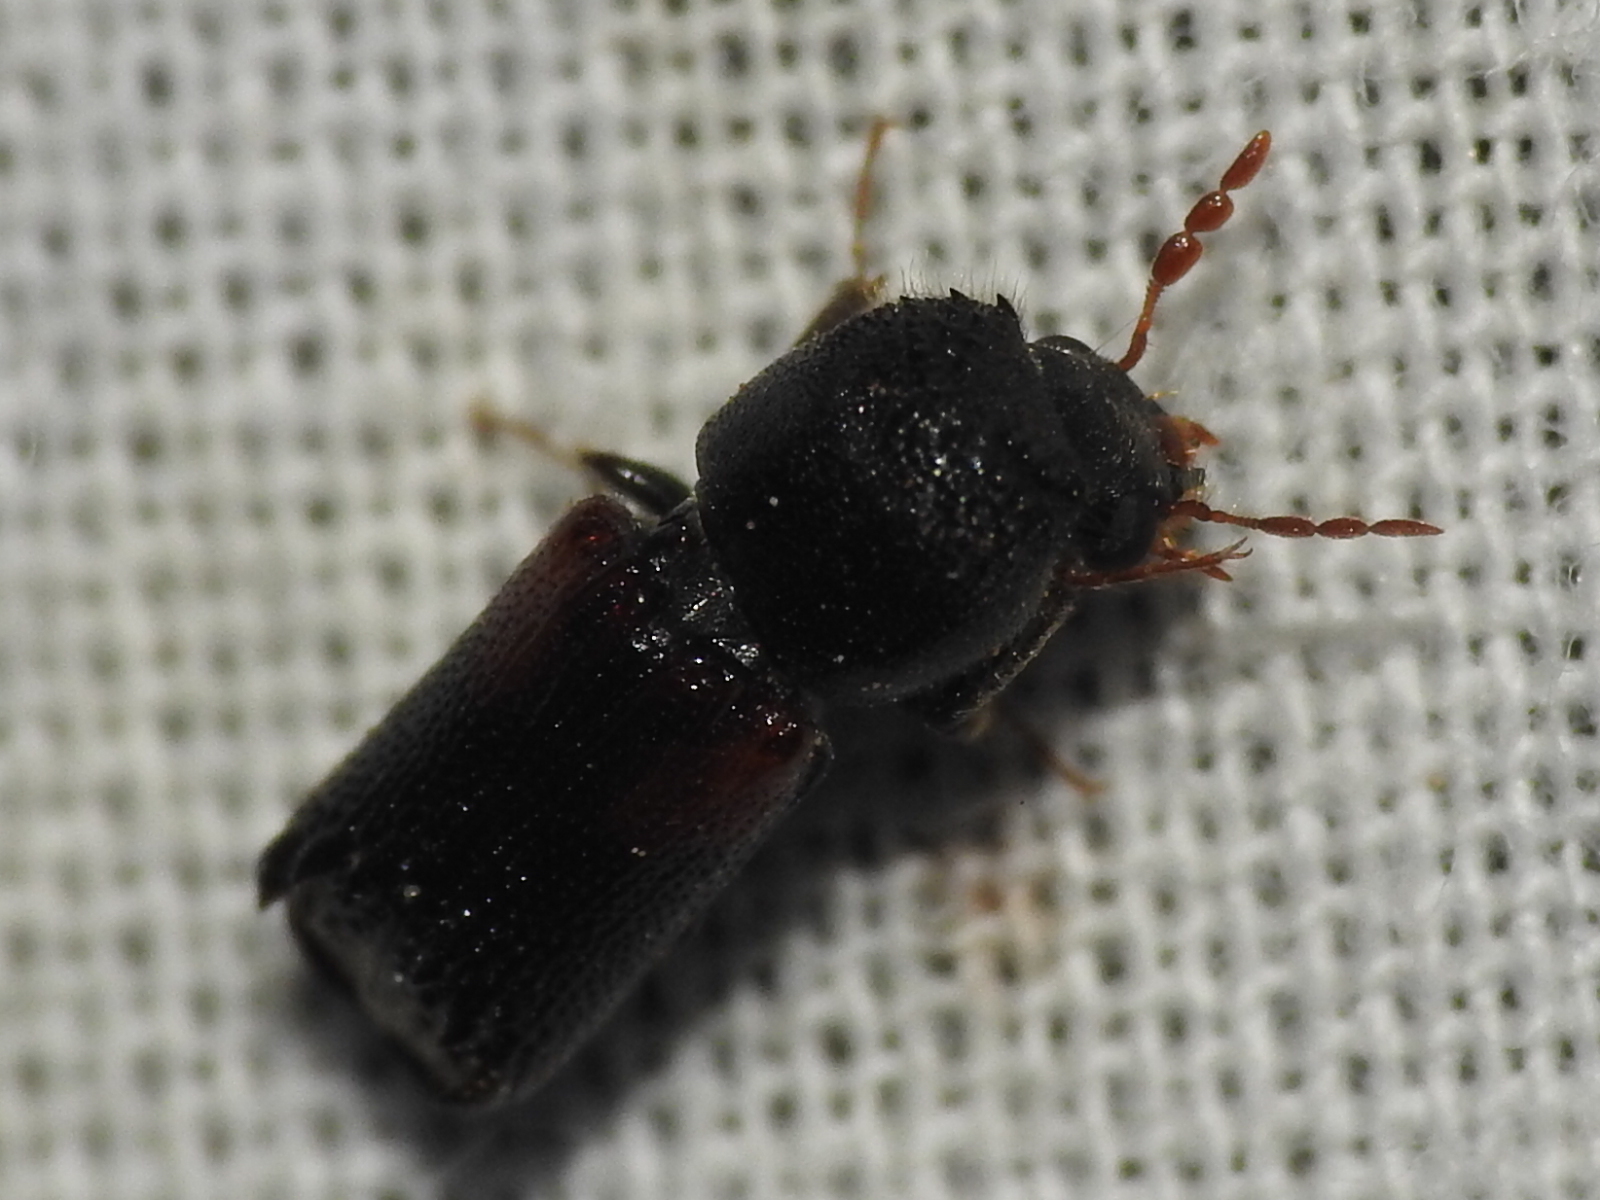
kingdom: Animalia
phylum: Arthropoda
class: Insecta
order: Coleoptera
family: Bostrichidae
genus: Xylobiops
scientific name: Xylobiops basilaris
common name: Red-shouldered bostrichid
